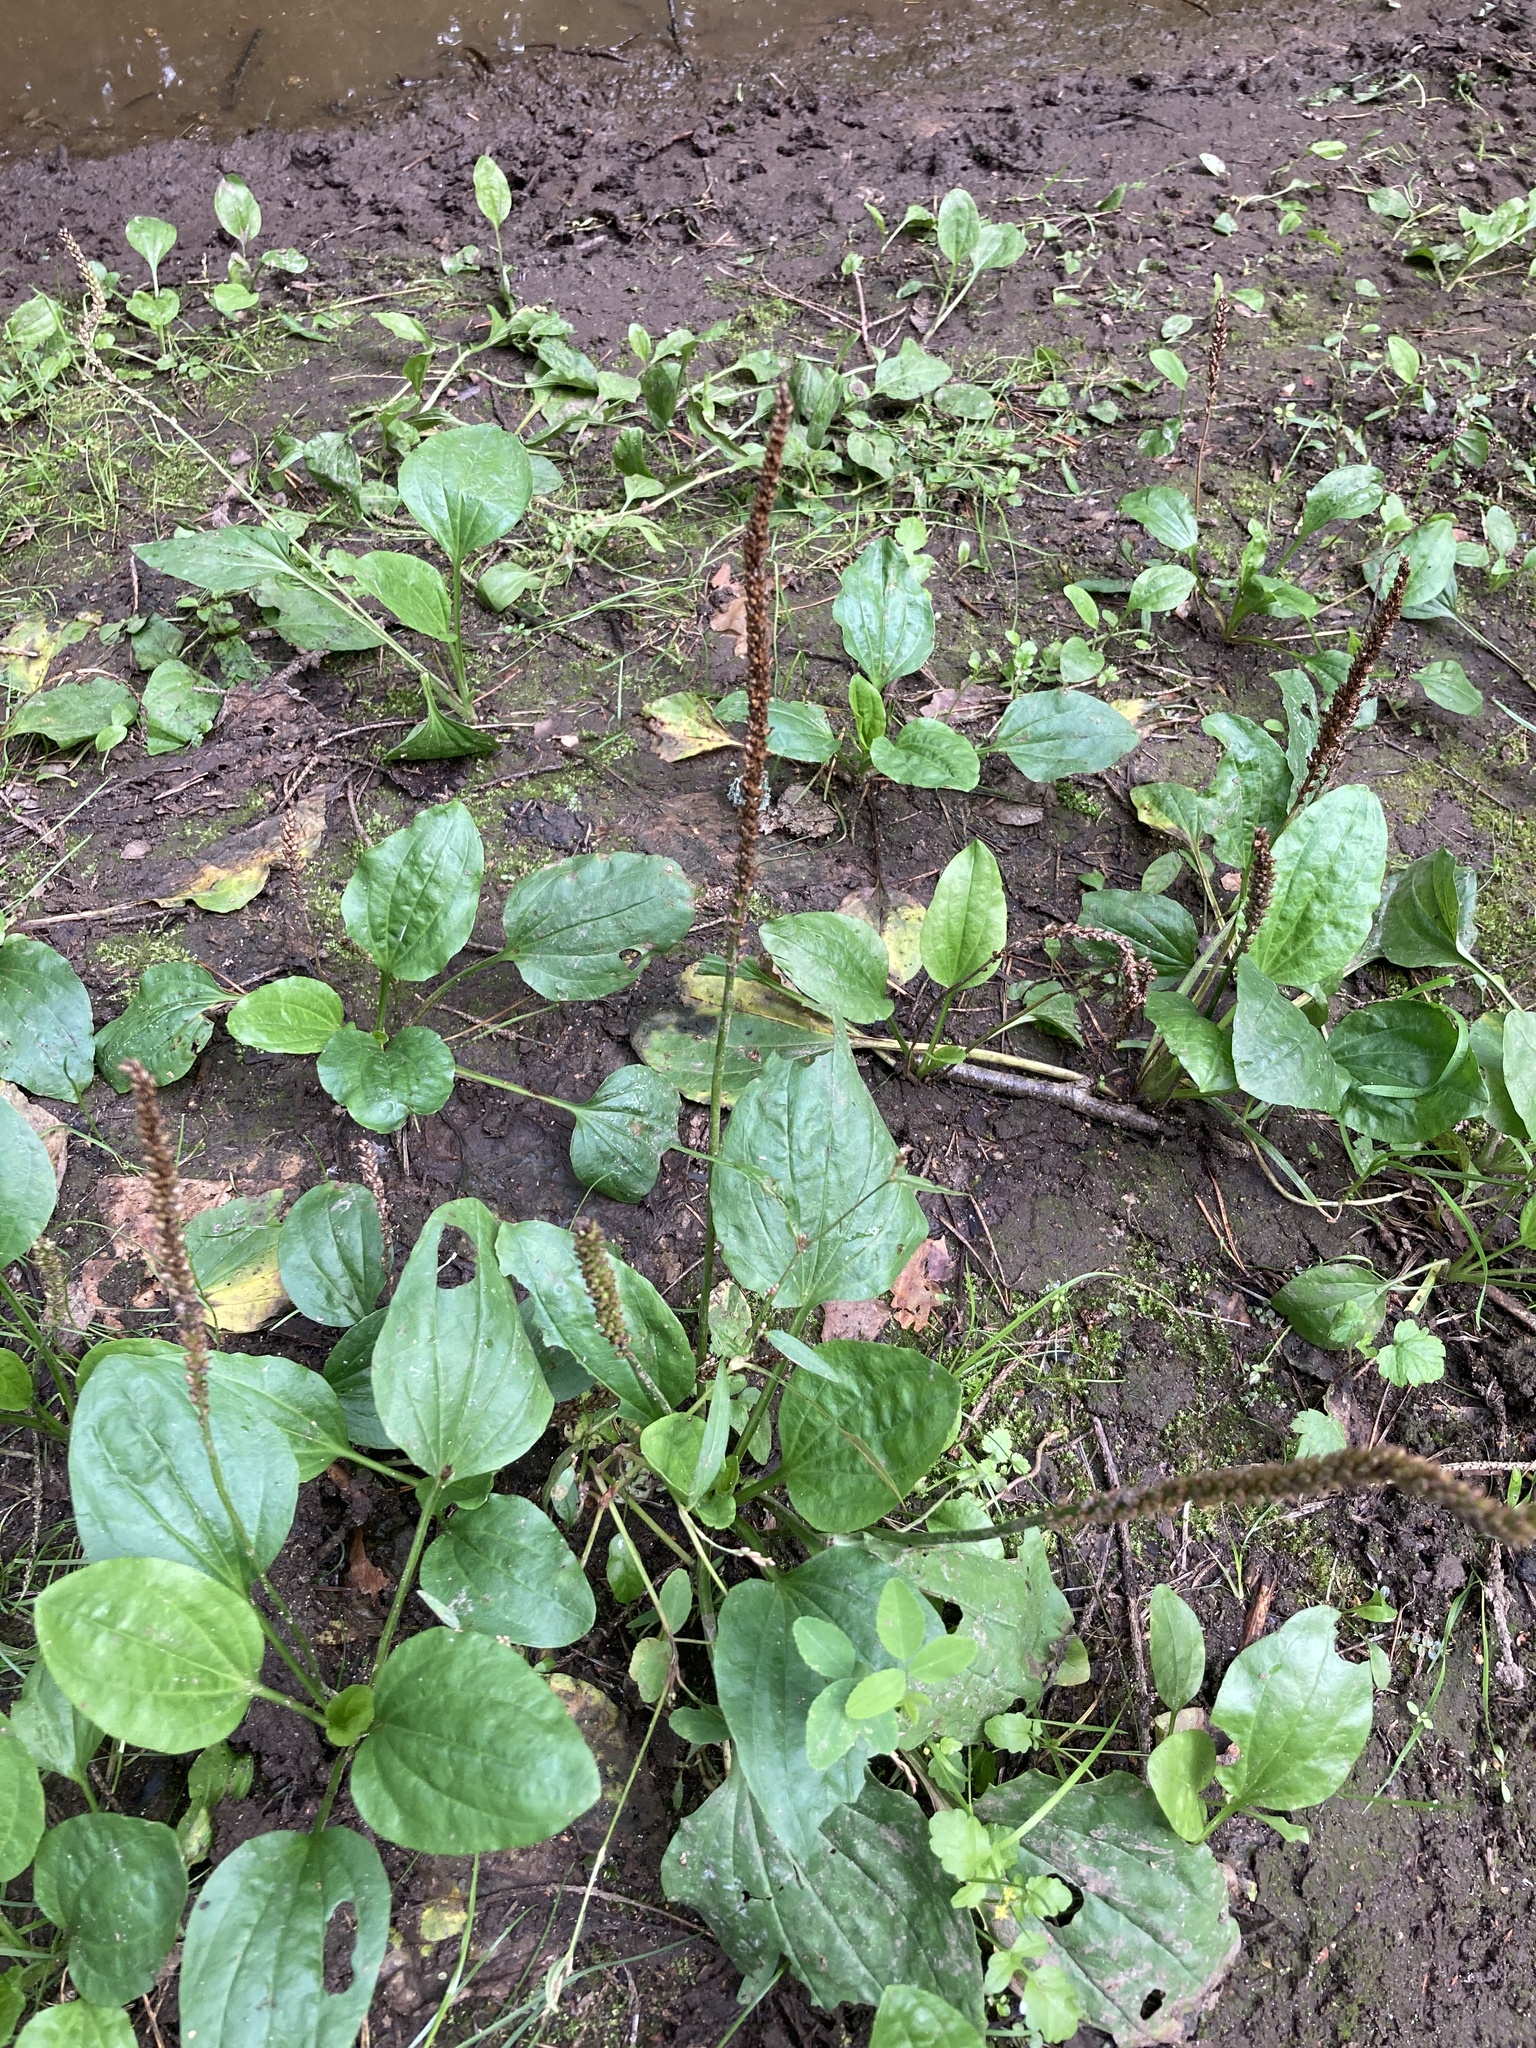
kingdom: Plantae
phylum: Tracheophyta
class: Magnoliopsida
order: Lamiales
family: Plantaginaceae
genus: Plantago
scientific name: Plantago major
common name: Common plantain
